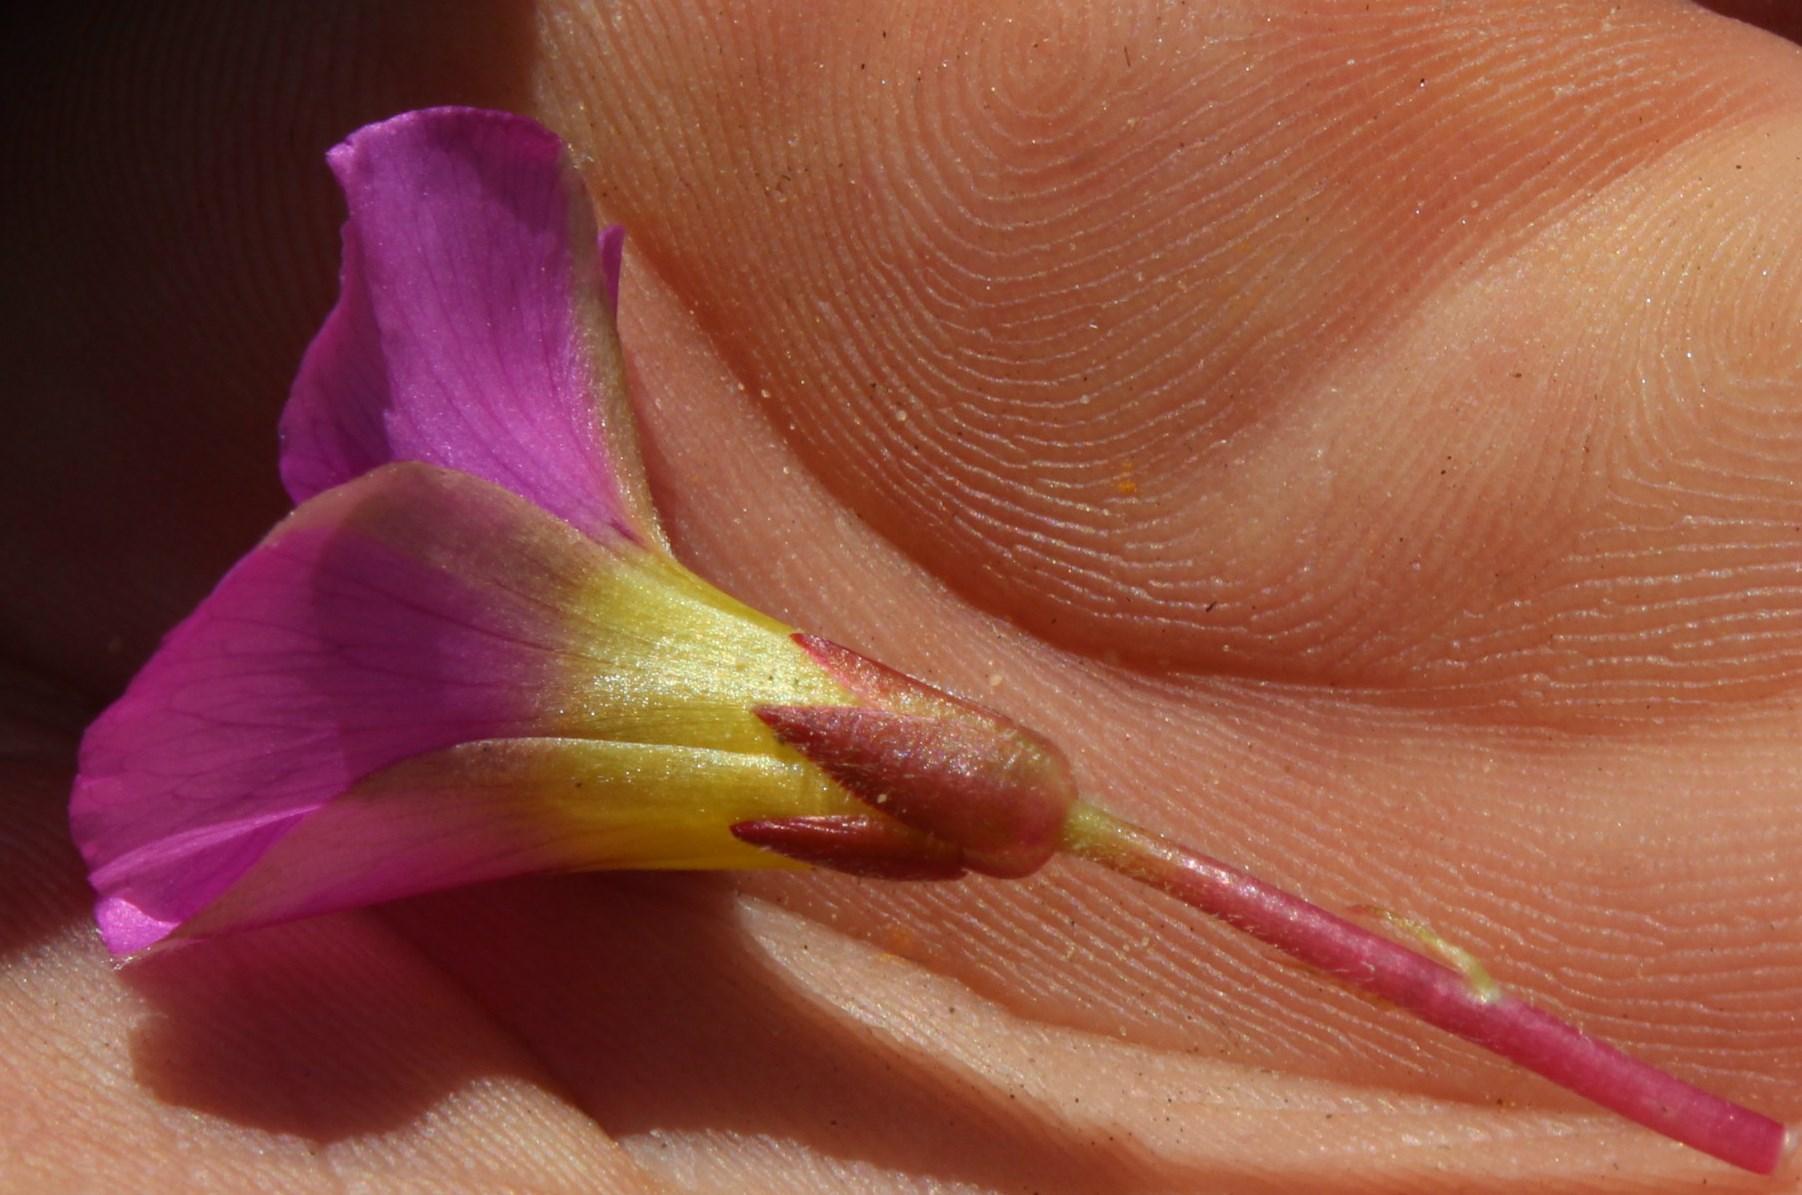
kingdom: Plantae
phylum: Tracheophyta
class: Magnoliopsida
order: Oxalidales
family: Oxalidaceae
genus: Oxalis
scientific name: Oxalis purpurea
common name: Purple woodsorrel
